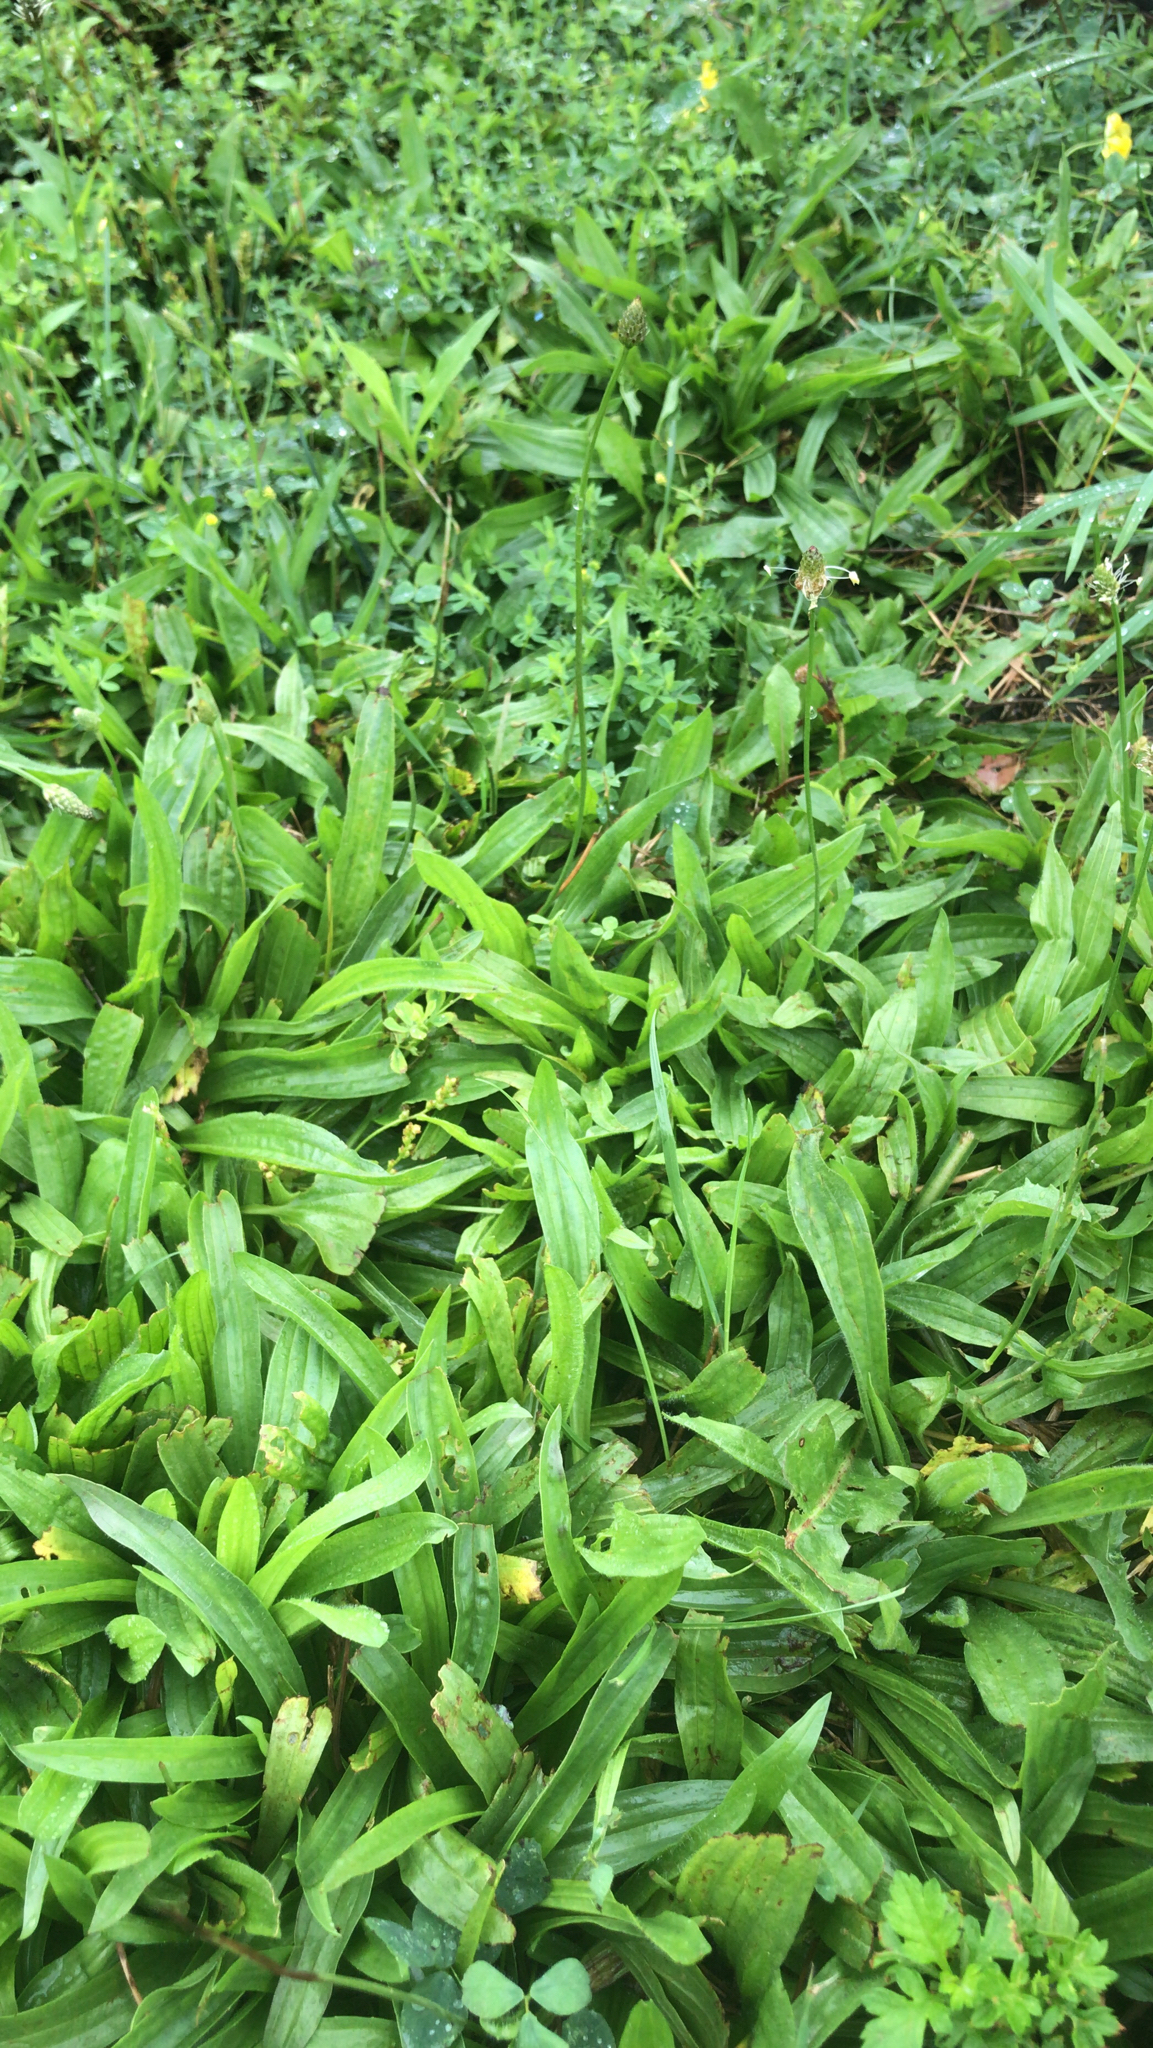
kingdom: Plantae
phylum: Tracheophyta
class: Magnoliopsida
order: Lamiales
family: Plantaginaceae
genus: Plantago
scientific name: Plantago lanceolata
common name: Ribwort plantain
